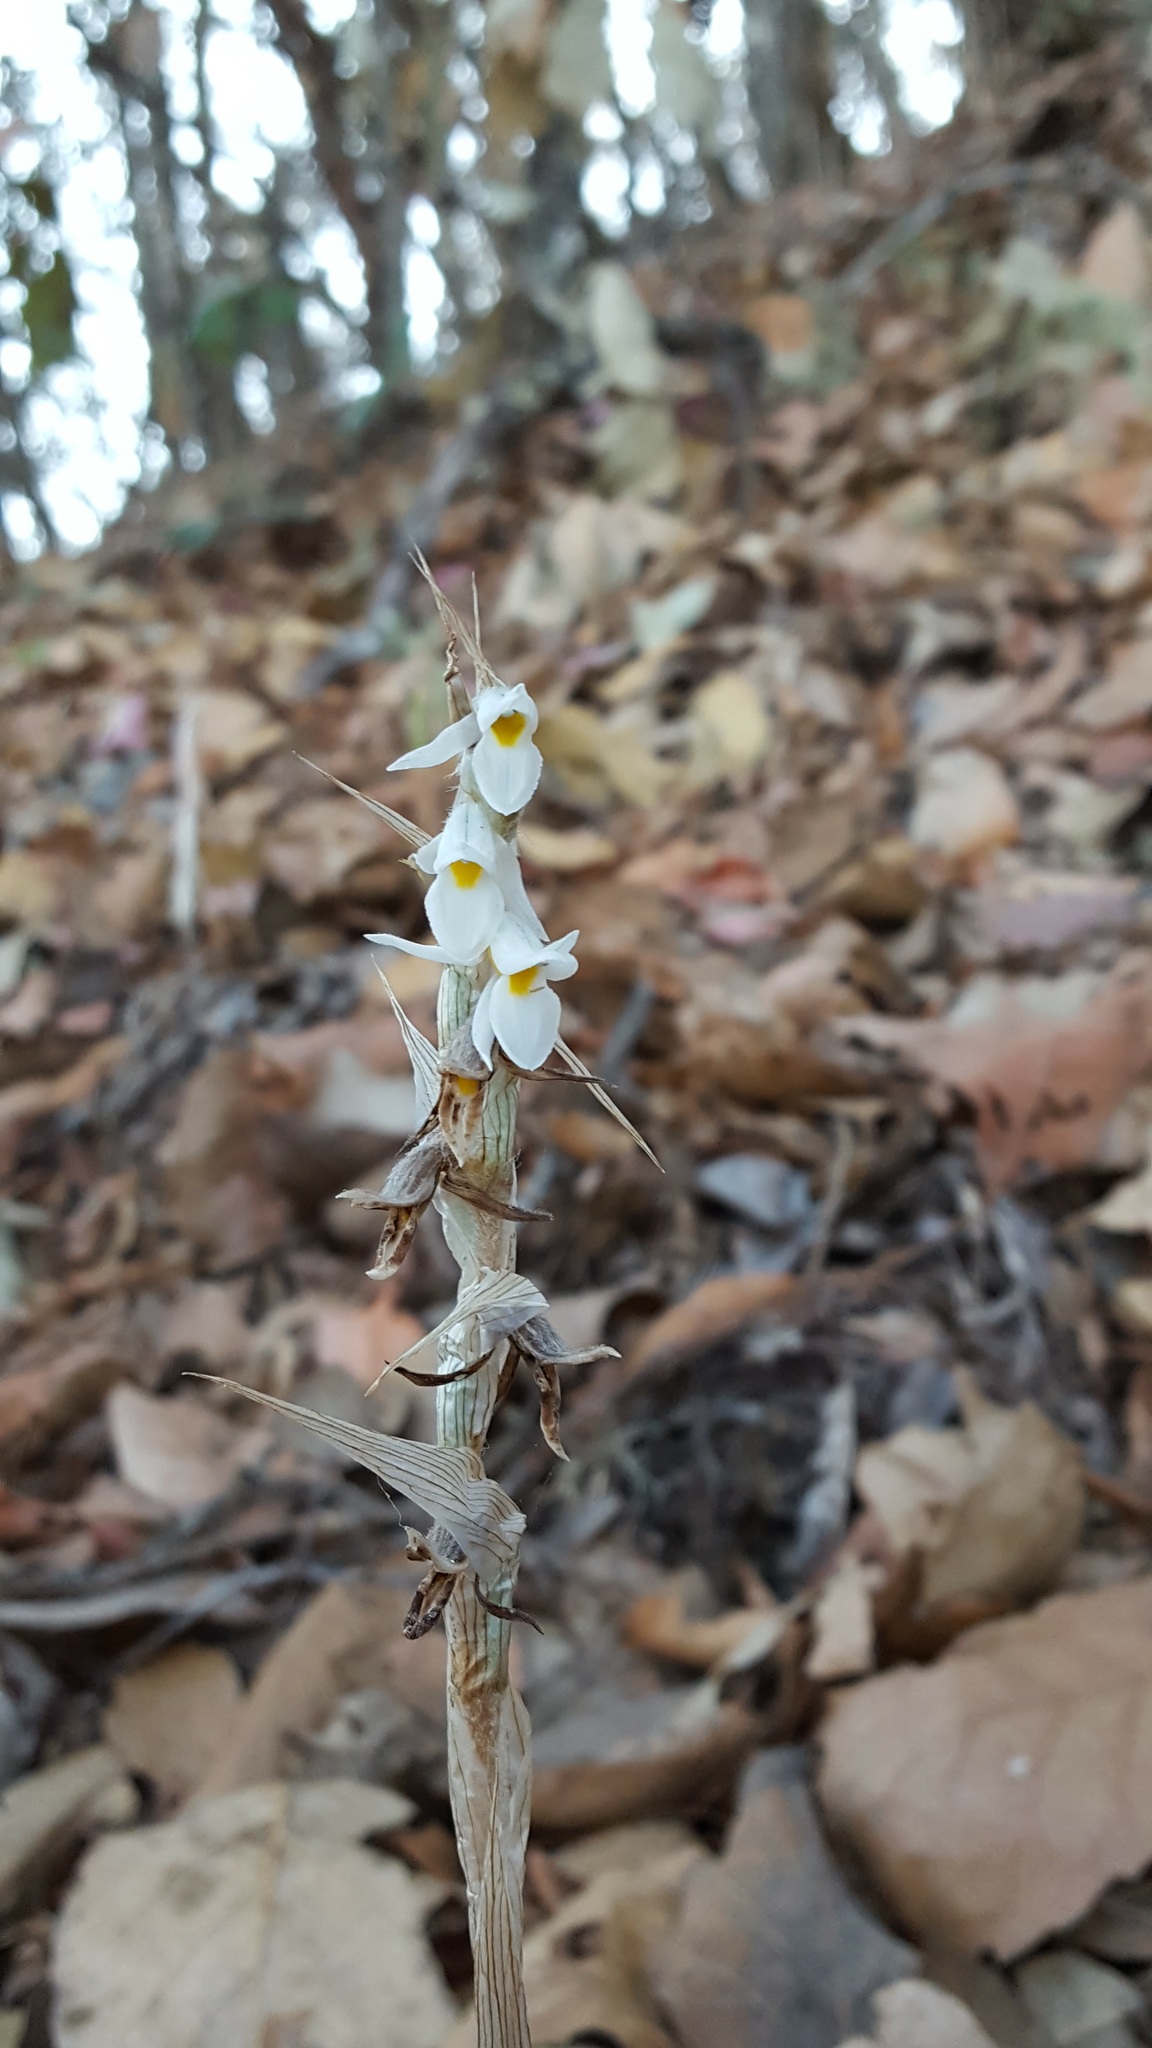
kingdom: Plantae
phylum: Tracheophyta
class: Liliopsida
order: Asparagales
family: Orchidaceae
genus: Deiregyne
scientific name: Deiregyne eriophora
